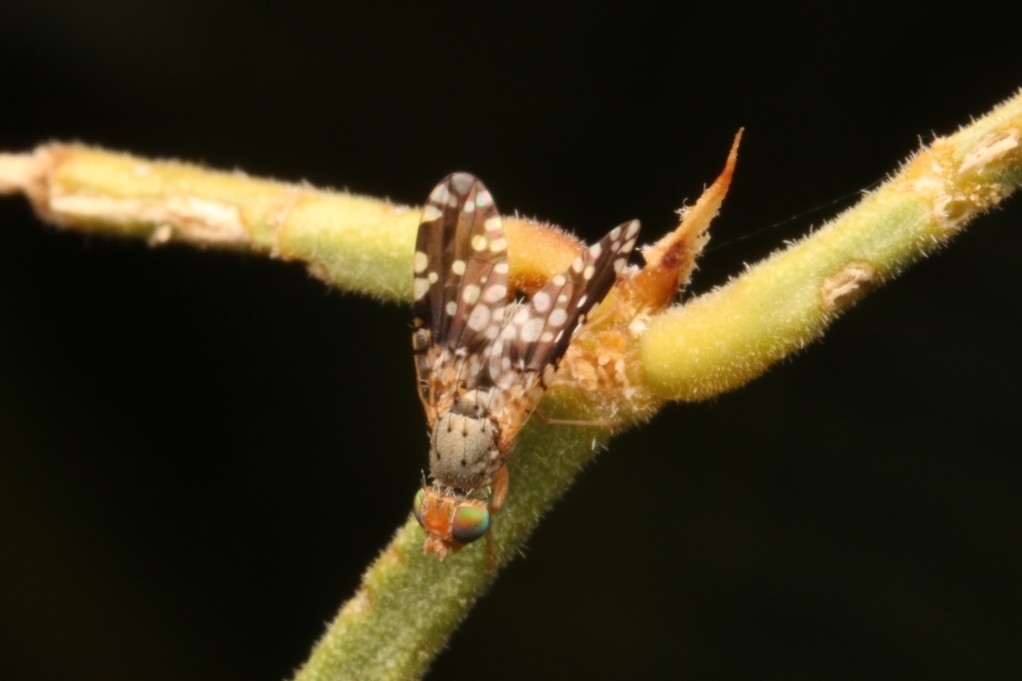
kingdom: Animalia
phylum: Arthropoda
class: Insecta
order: Diptera
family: Tephritidae
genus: Dyseuaresta
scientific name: Dyseuaresta mexicana
